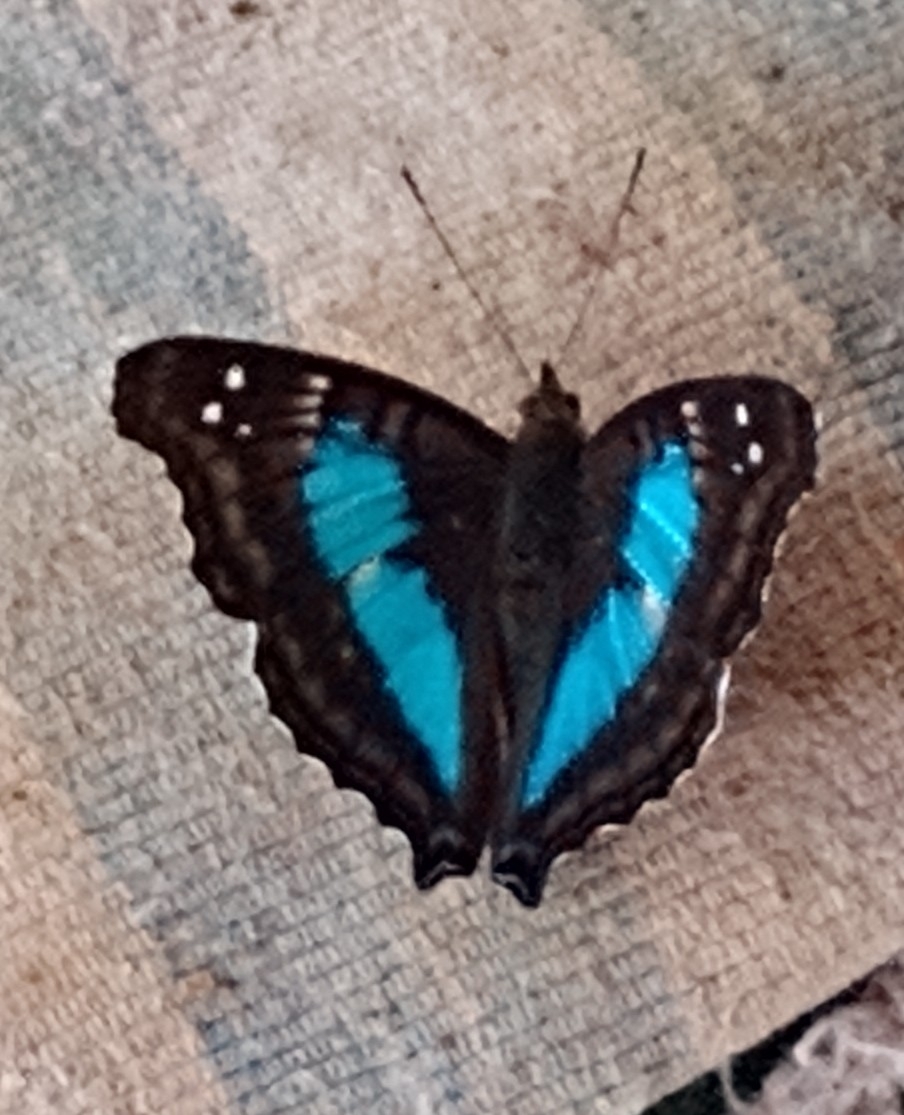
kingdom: Animalia
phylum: Arthropoda
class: Insecta
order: Lepidoptera
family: Nymphalidae
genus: Doxocopa
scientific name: Doxocopa laurentia
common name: Turquoise emperor
